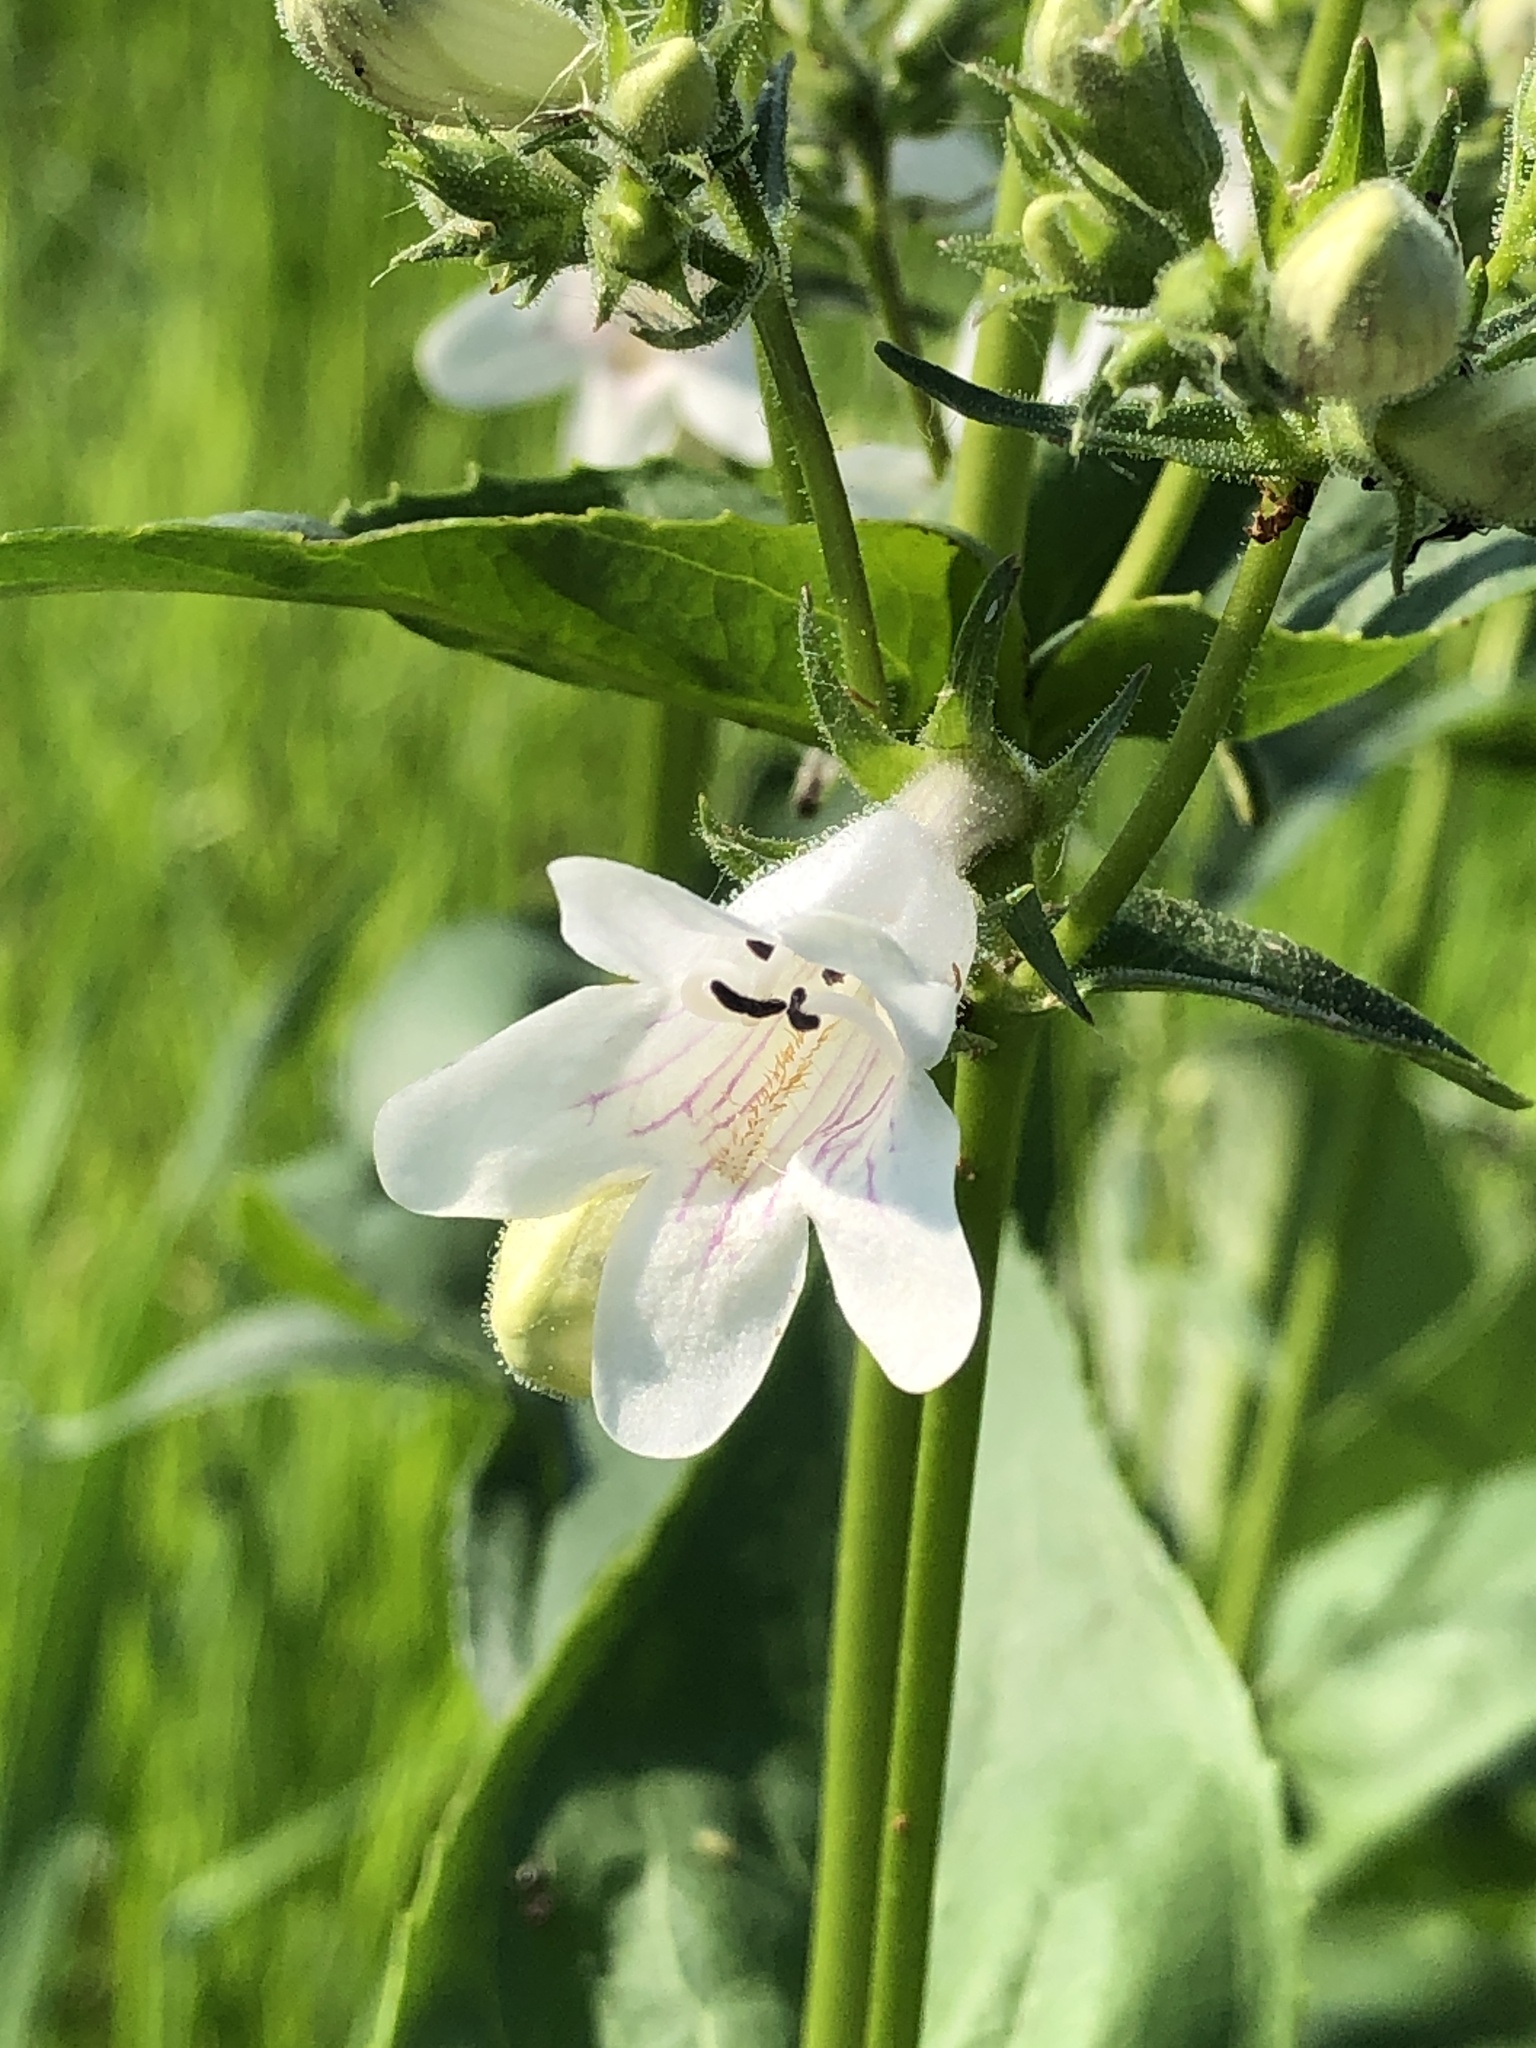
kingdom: Plantae
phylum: Tracheophyta
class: Magnoliopsida
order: Lamiales
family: Plantaginaceae
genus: Penstemon
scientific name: Penstemon digitalis
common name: Foxglove beardtongue
